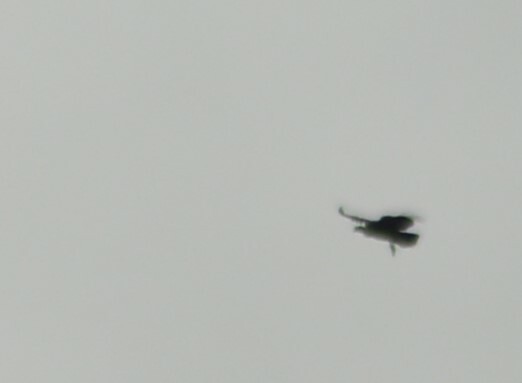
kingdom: Animalia
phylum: Chordata
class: Aves
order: Accipitriformes
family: Cathartidae
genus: Vultur
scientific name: Vultur gryphus
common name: Andean condor
